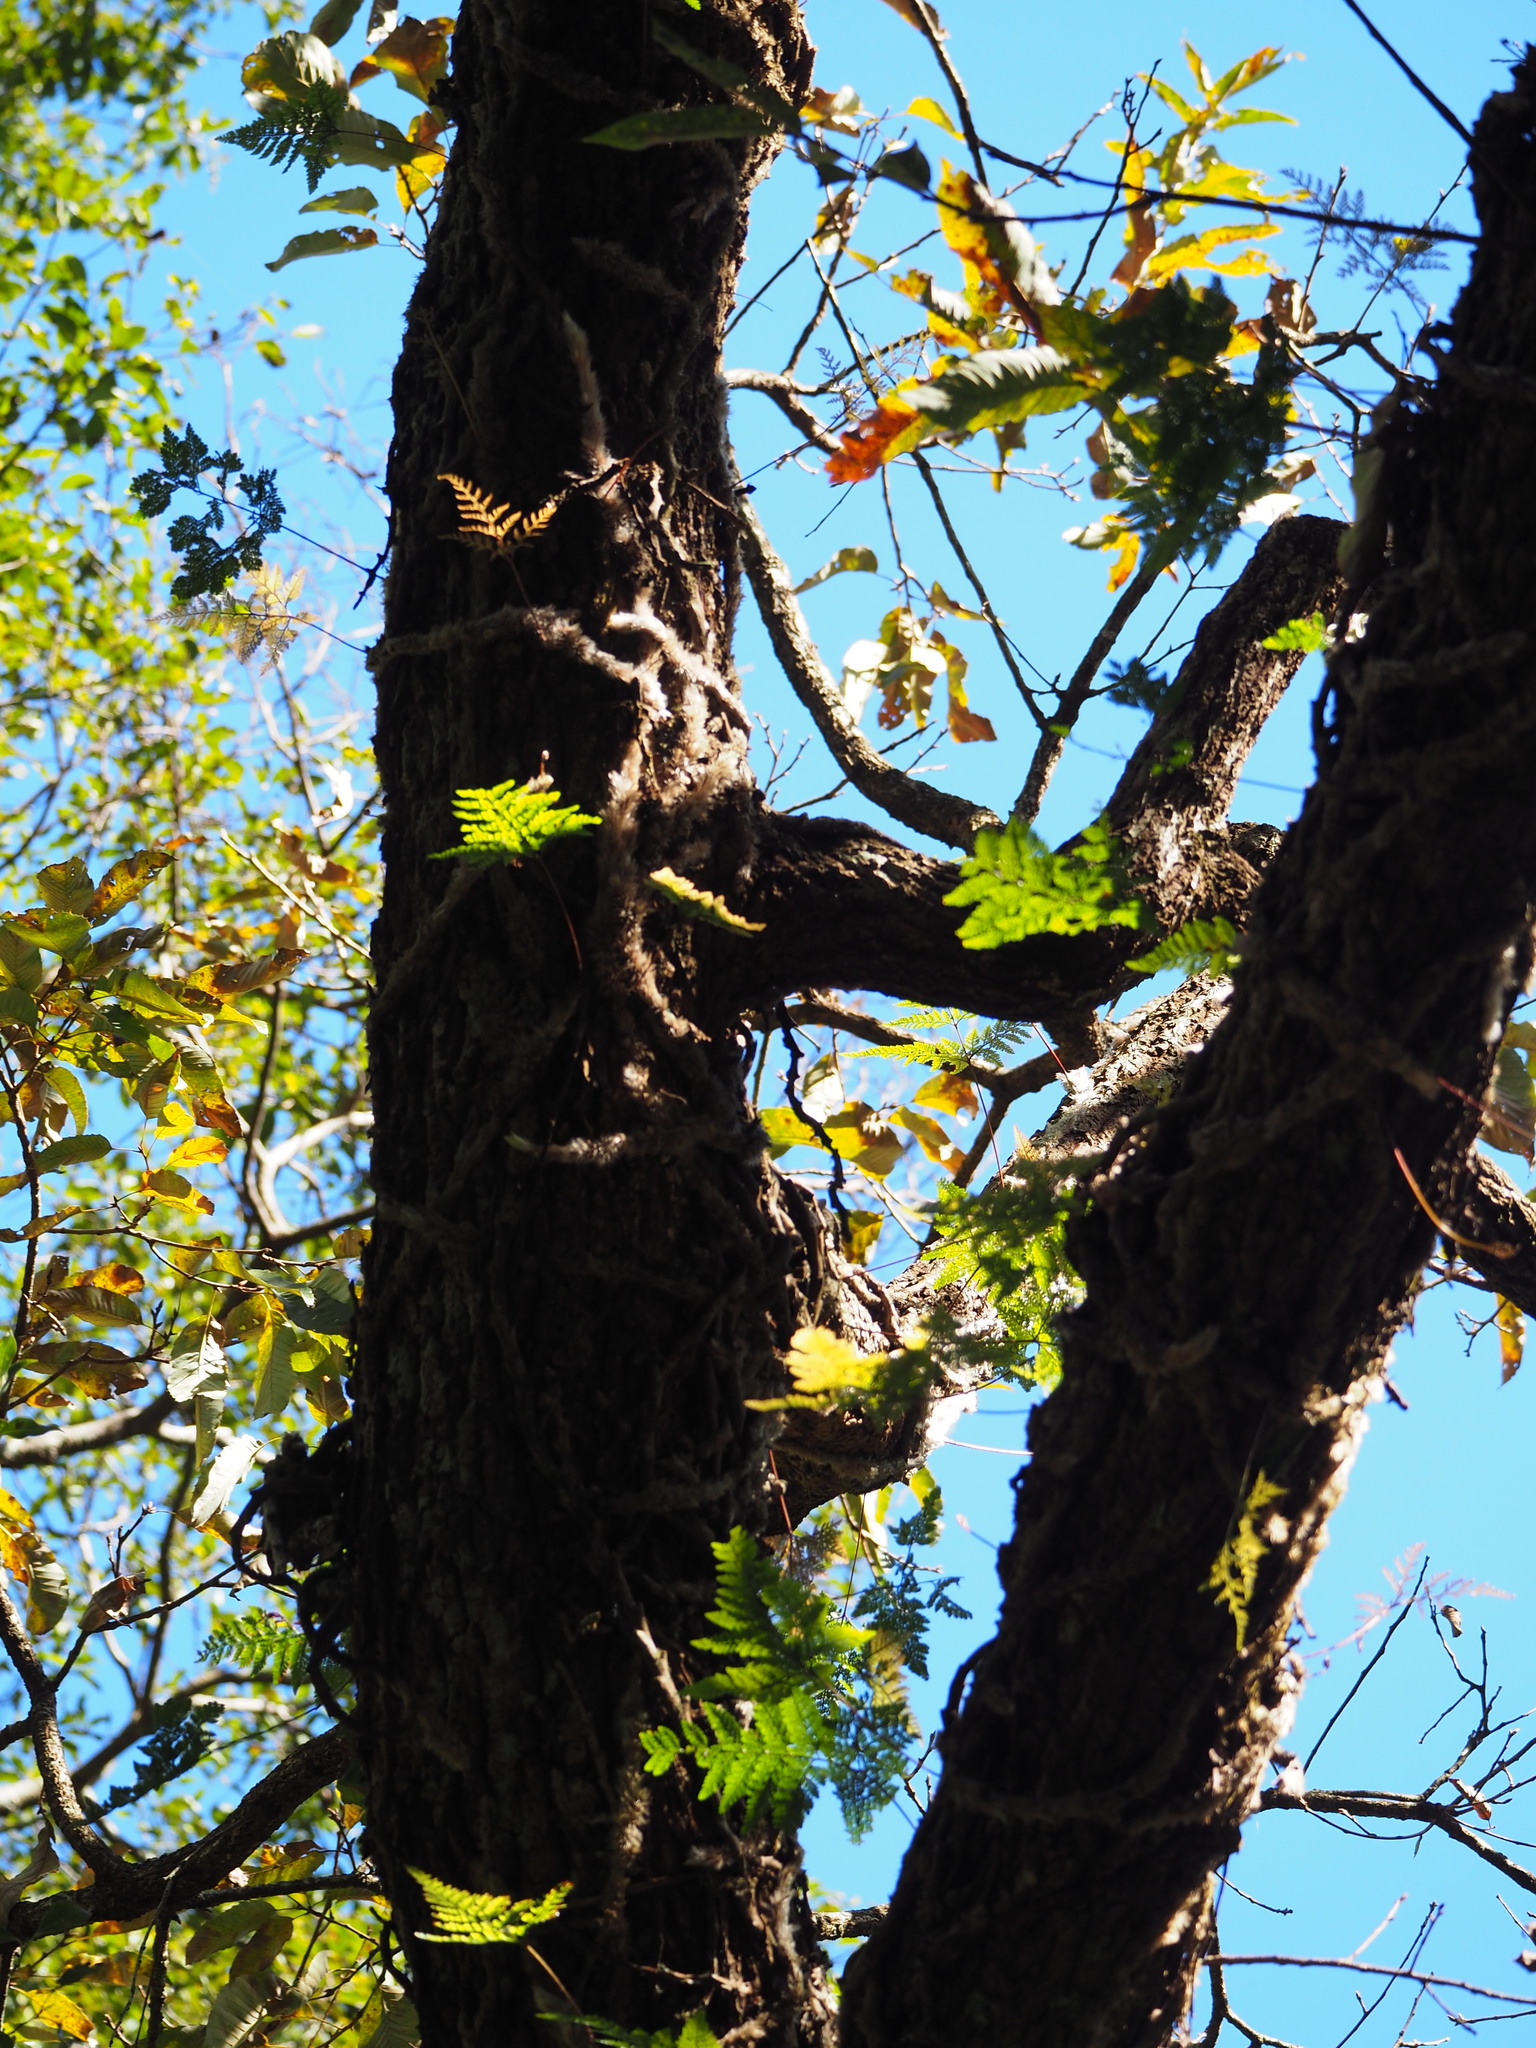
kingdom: Plantae
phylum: Tracheophyta
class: Polypodiopsida
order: Polypodiales
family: Davalliaceae
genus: Davallia
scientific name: Davallia griffithiana
